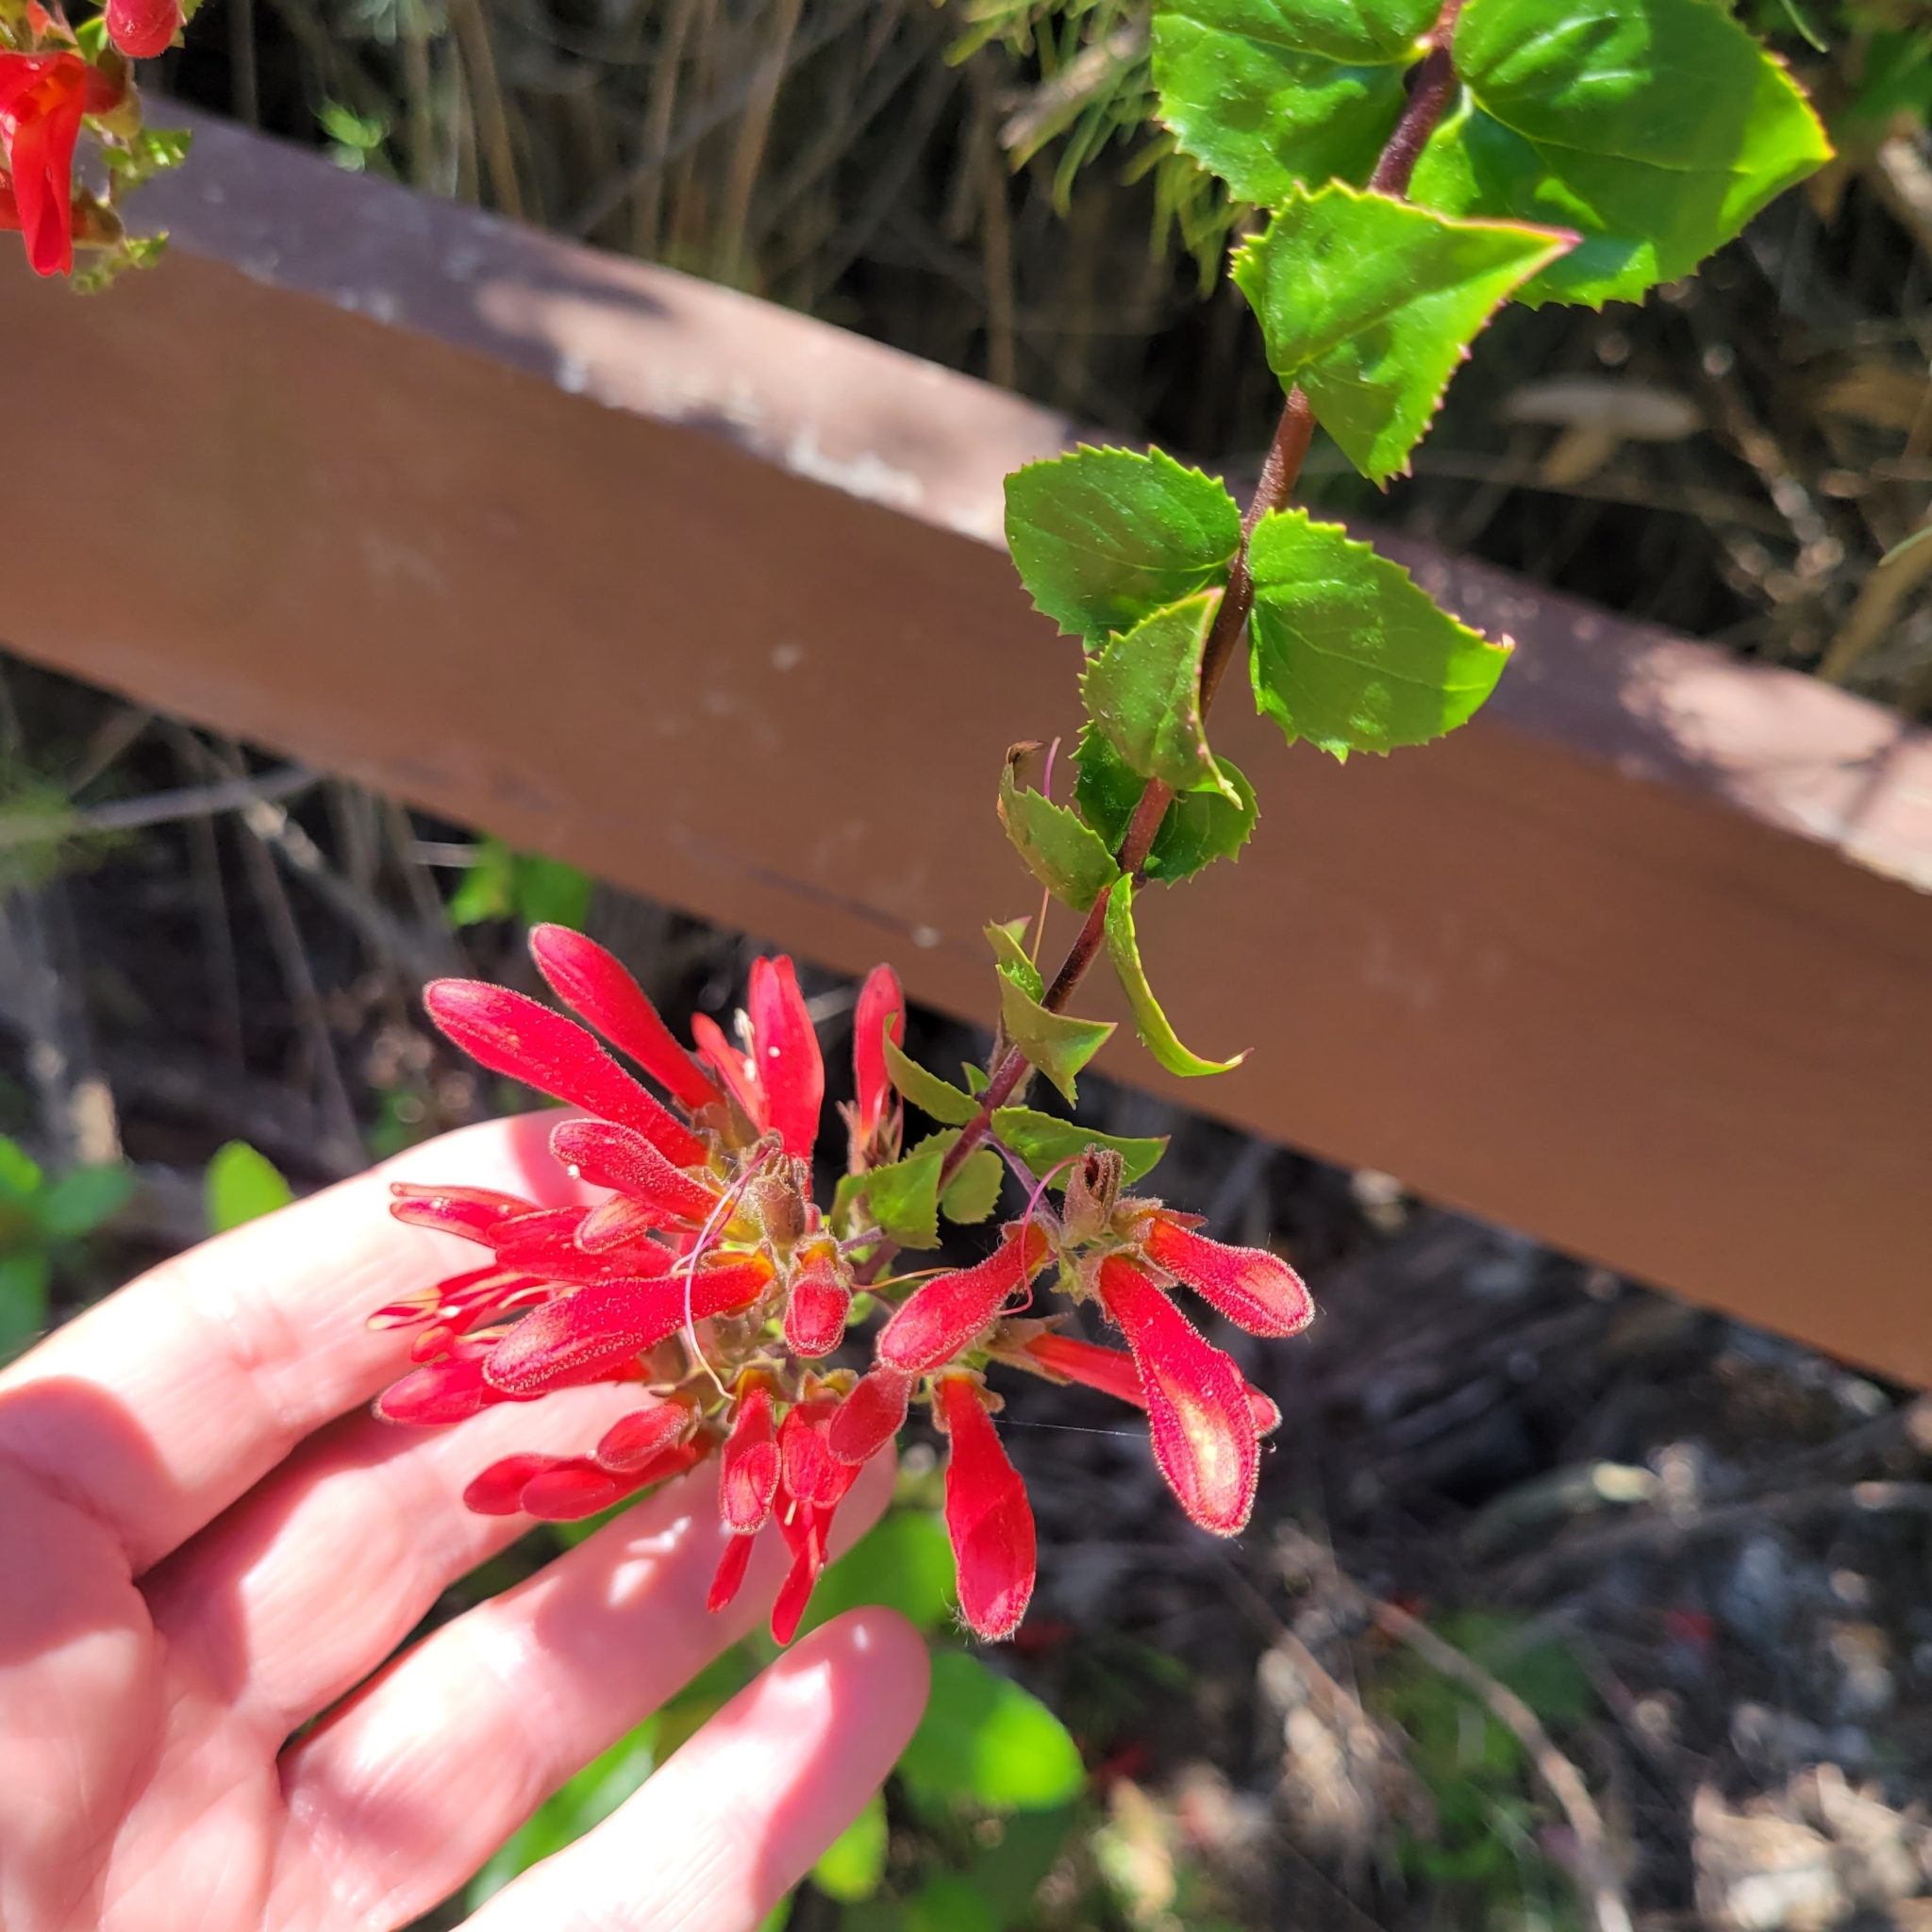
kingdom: Plantae
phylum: Tracheophyta
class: Magnoliopsida
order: Lamiales
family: Plantaginaceae
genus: Keckiella
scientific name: Keckiella cordifolia
